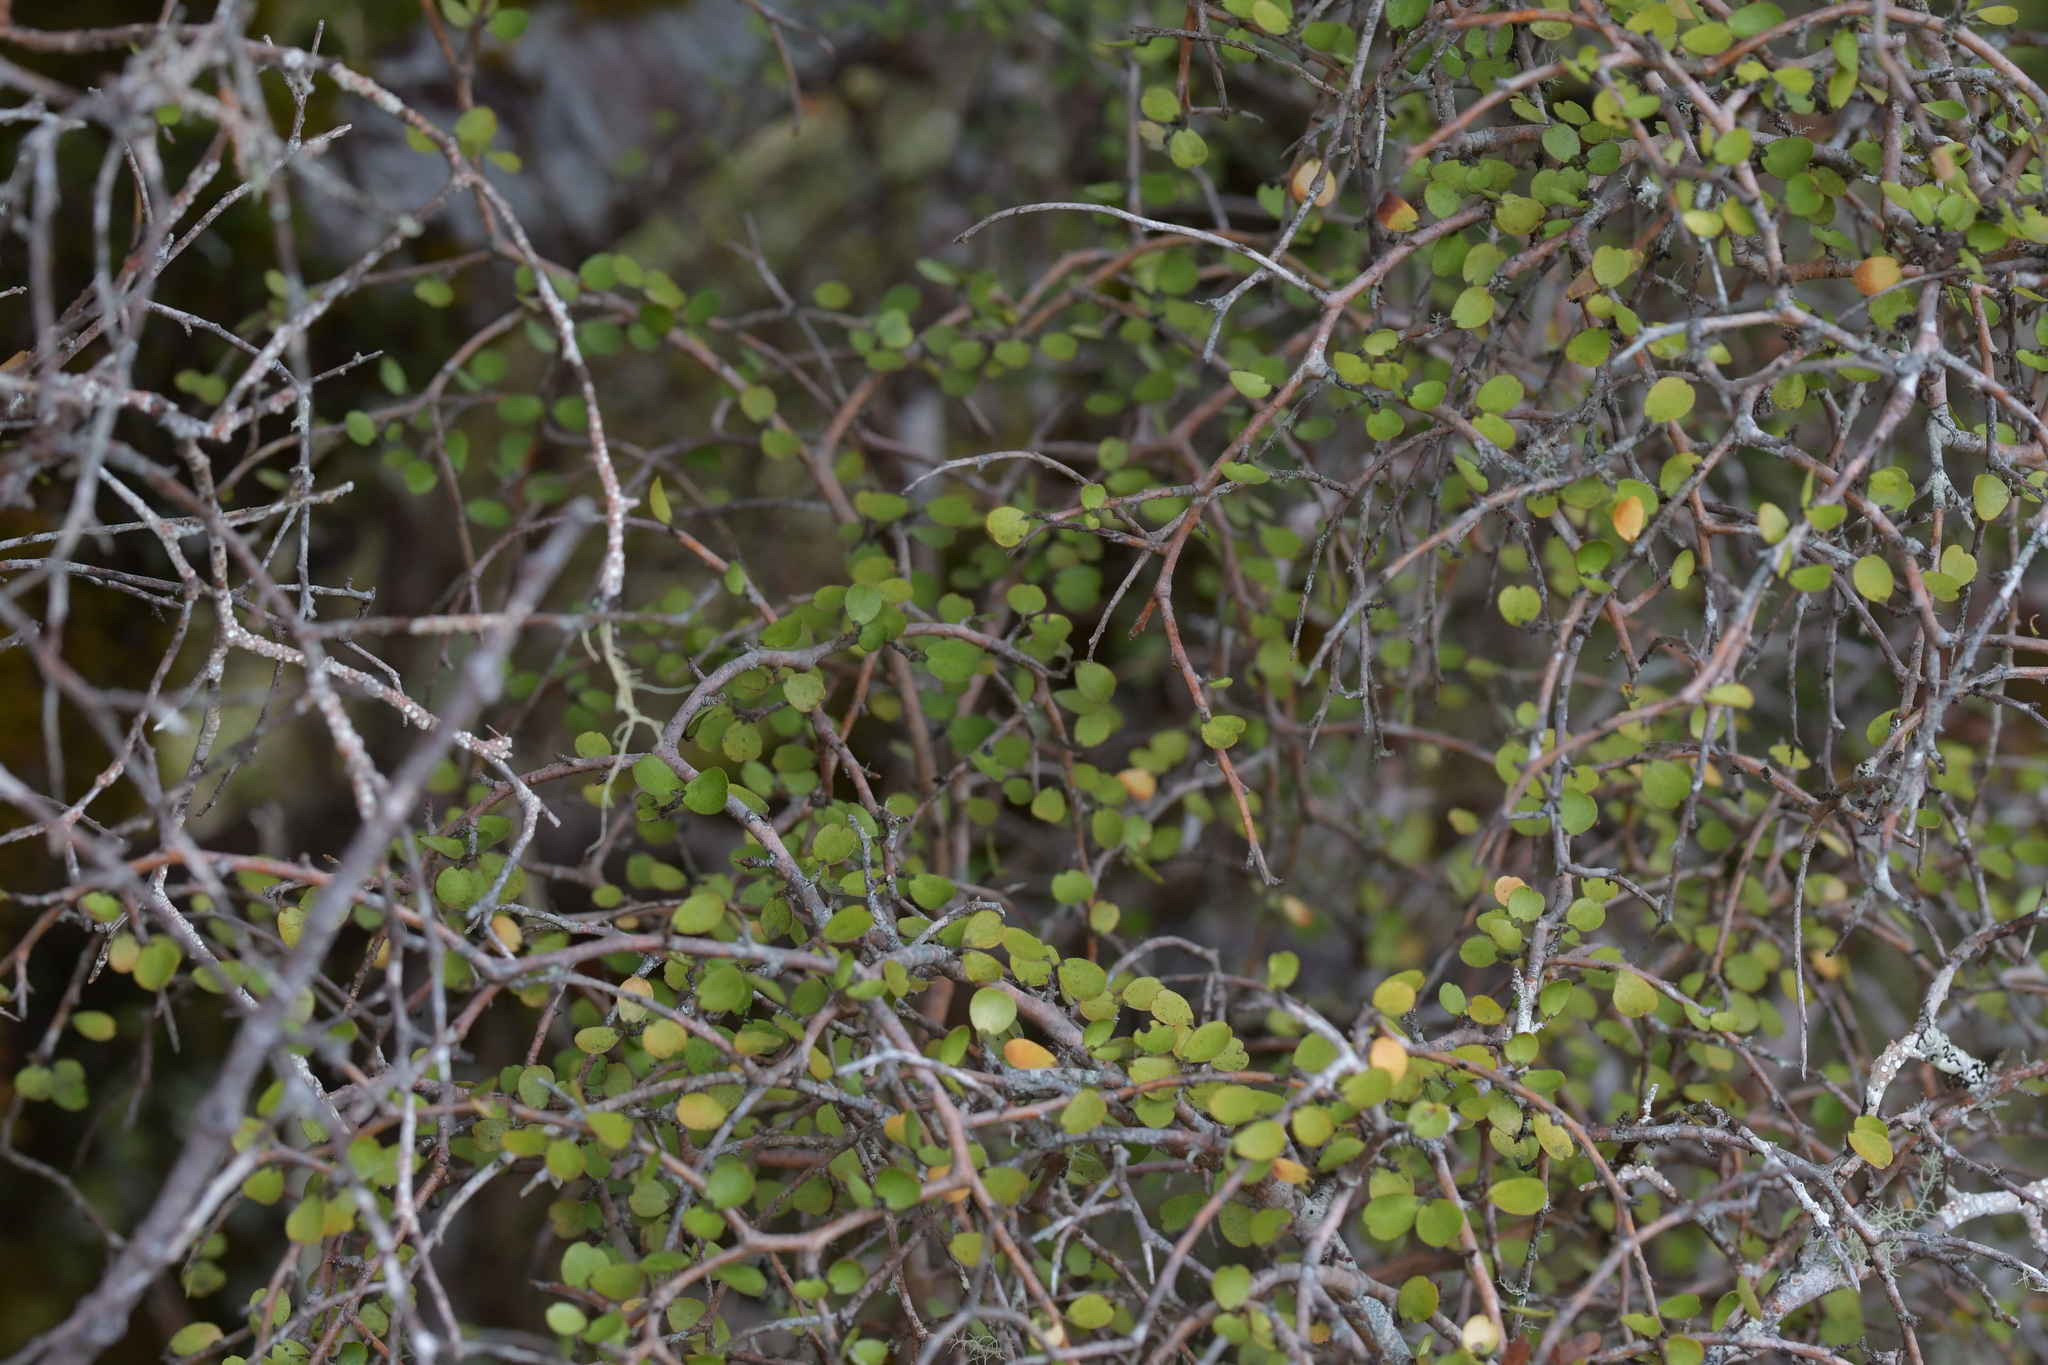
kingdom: Plantae
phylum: Tracheophyta
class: Magnoliopsida
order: Ericales
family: Primulaceae
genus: Myrsine
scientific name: Myrsine divaricata
